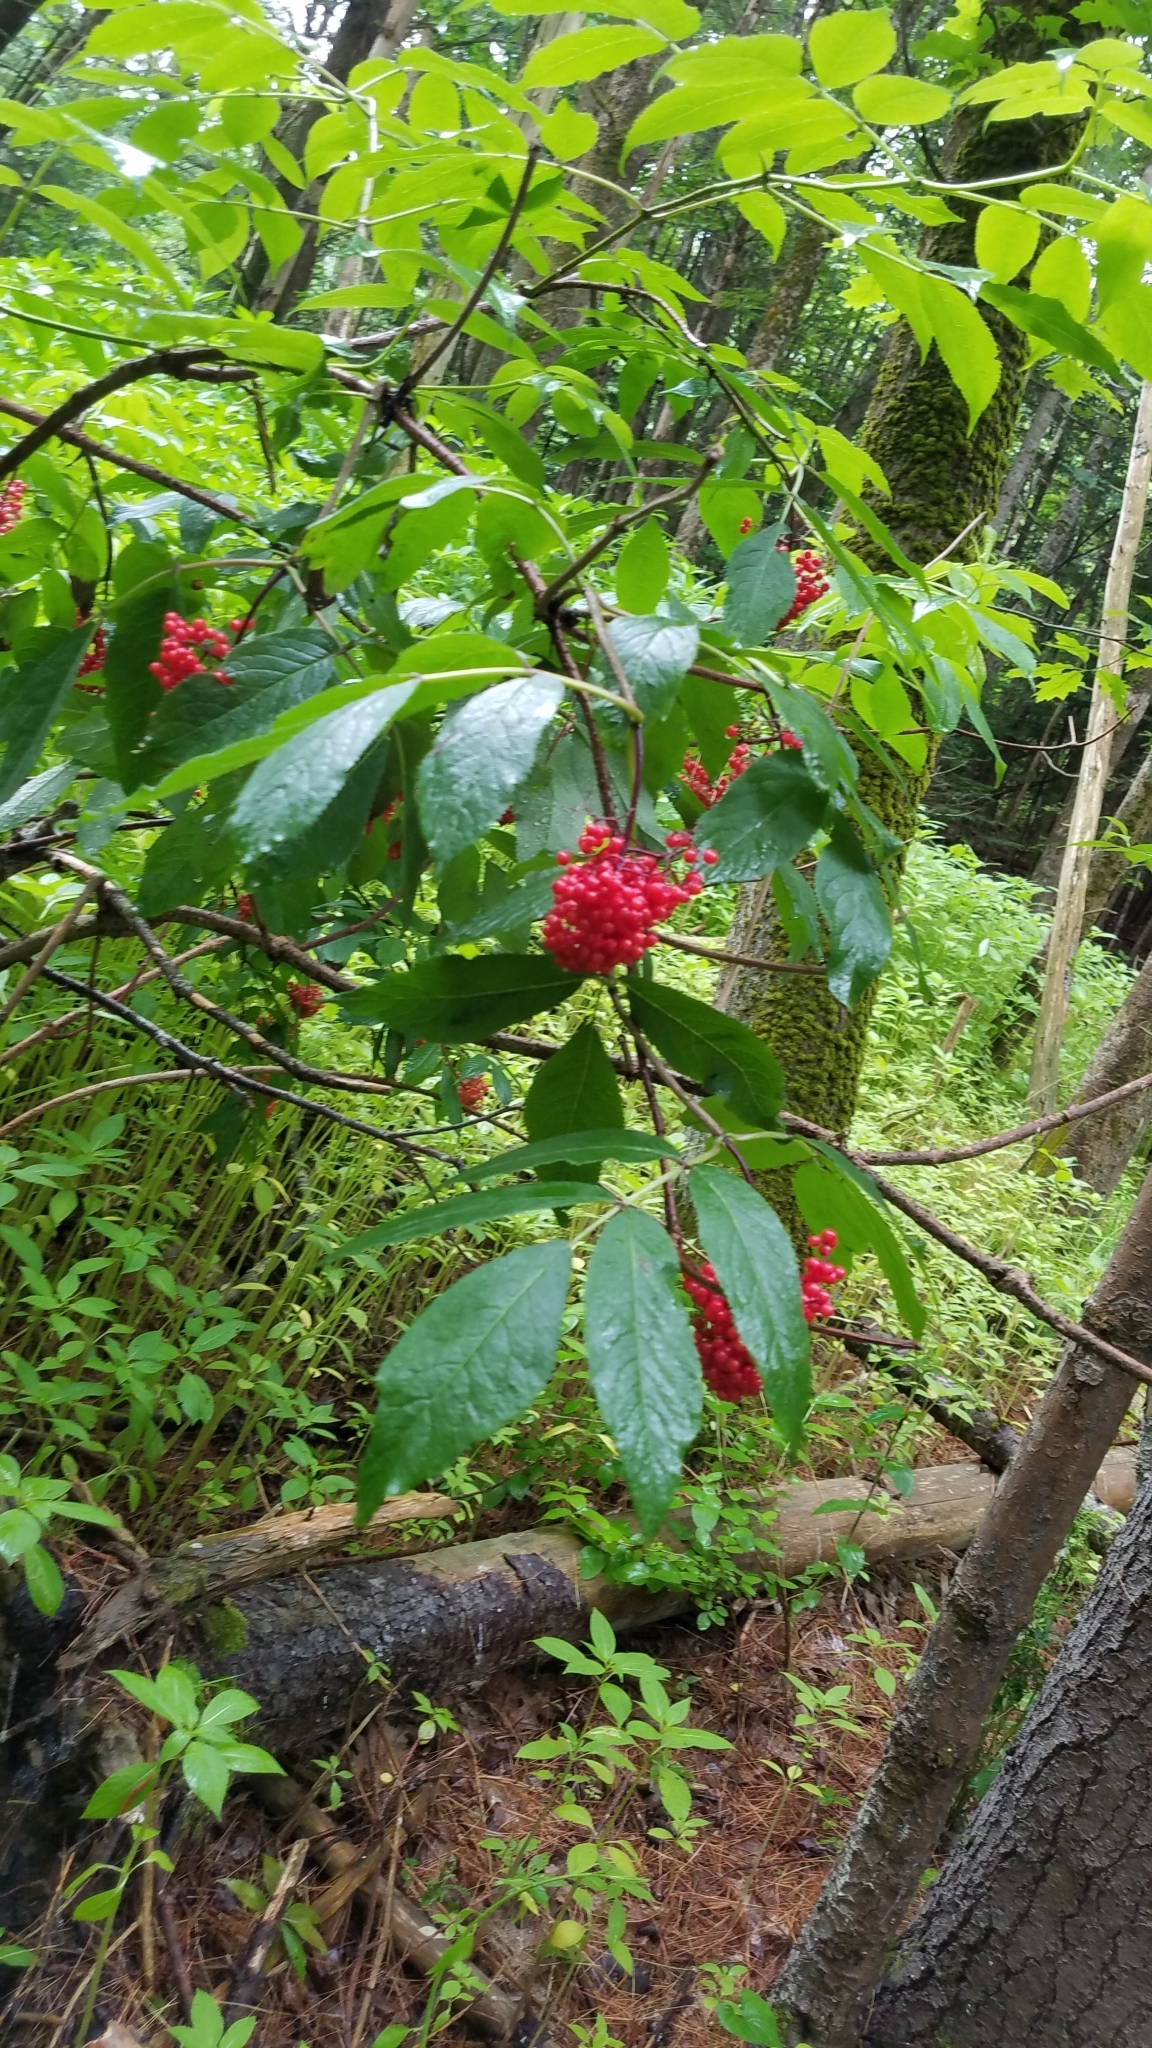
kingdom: Plantae
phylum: Tracheophyta
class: Magnoliopsida
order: Dipsacales
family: Viburnaceae
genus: Sambucus
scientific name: Sambucus racemosa
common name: Red-berried elder
